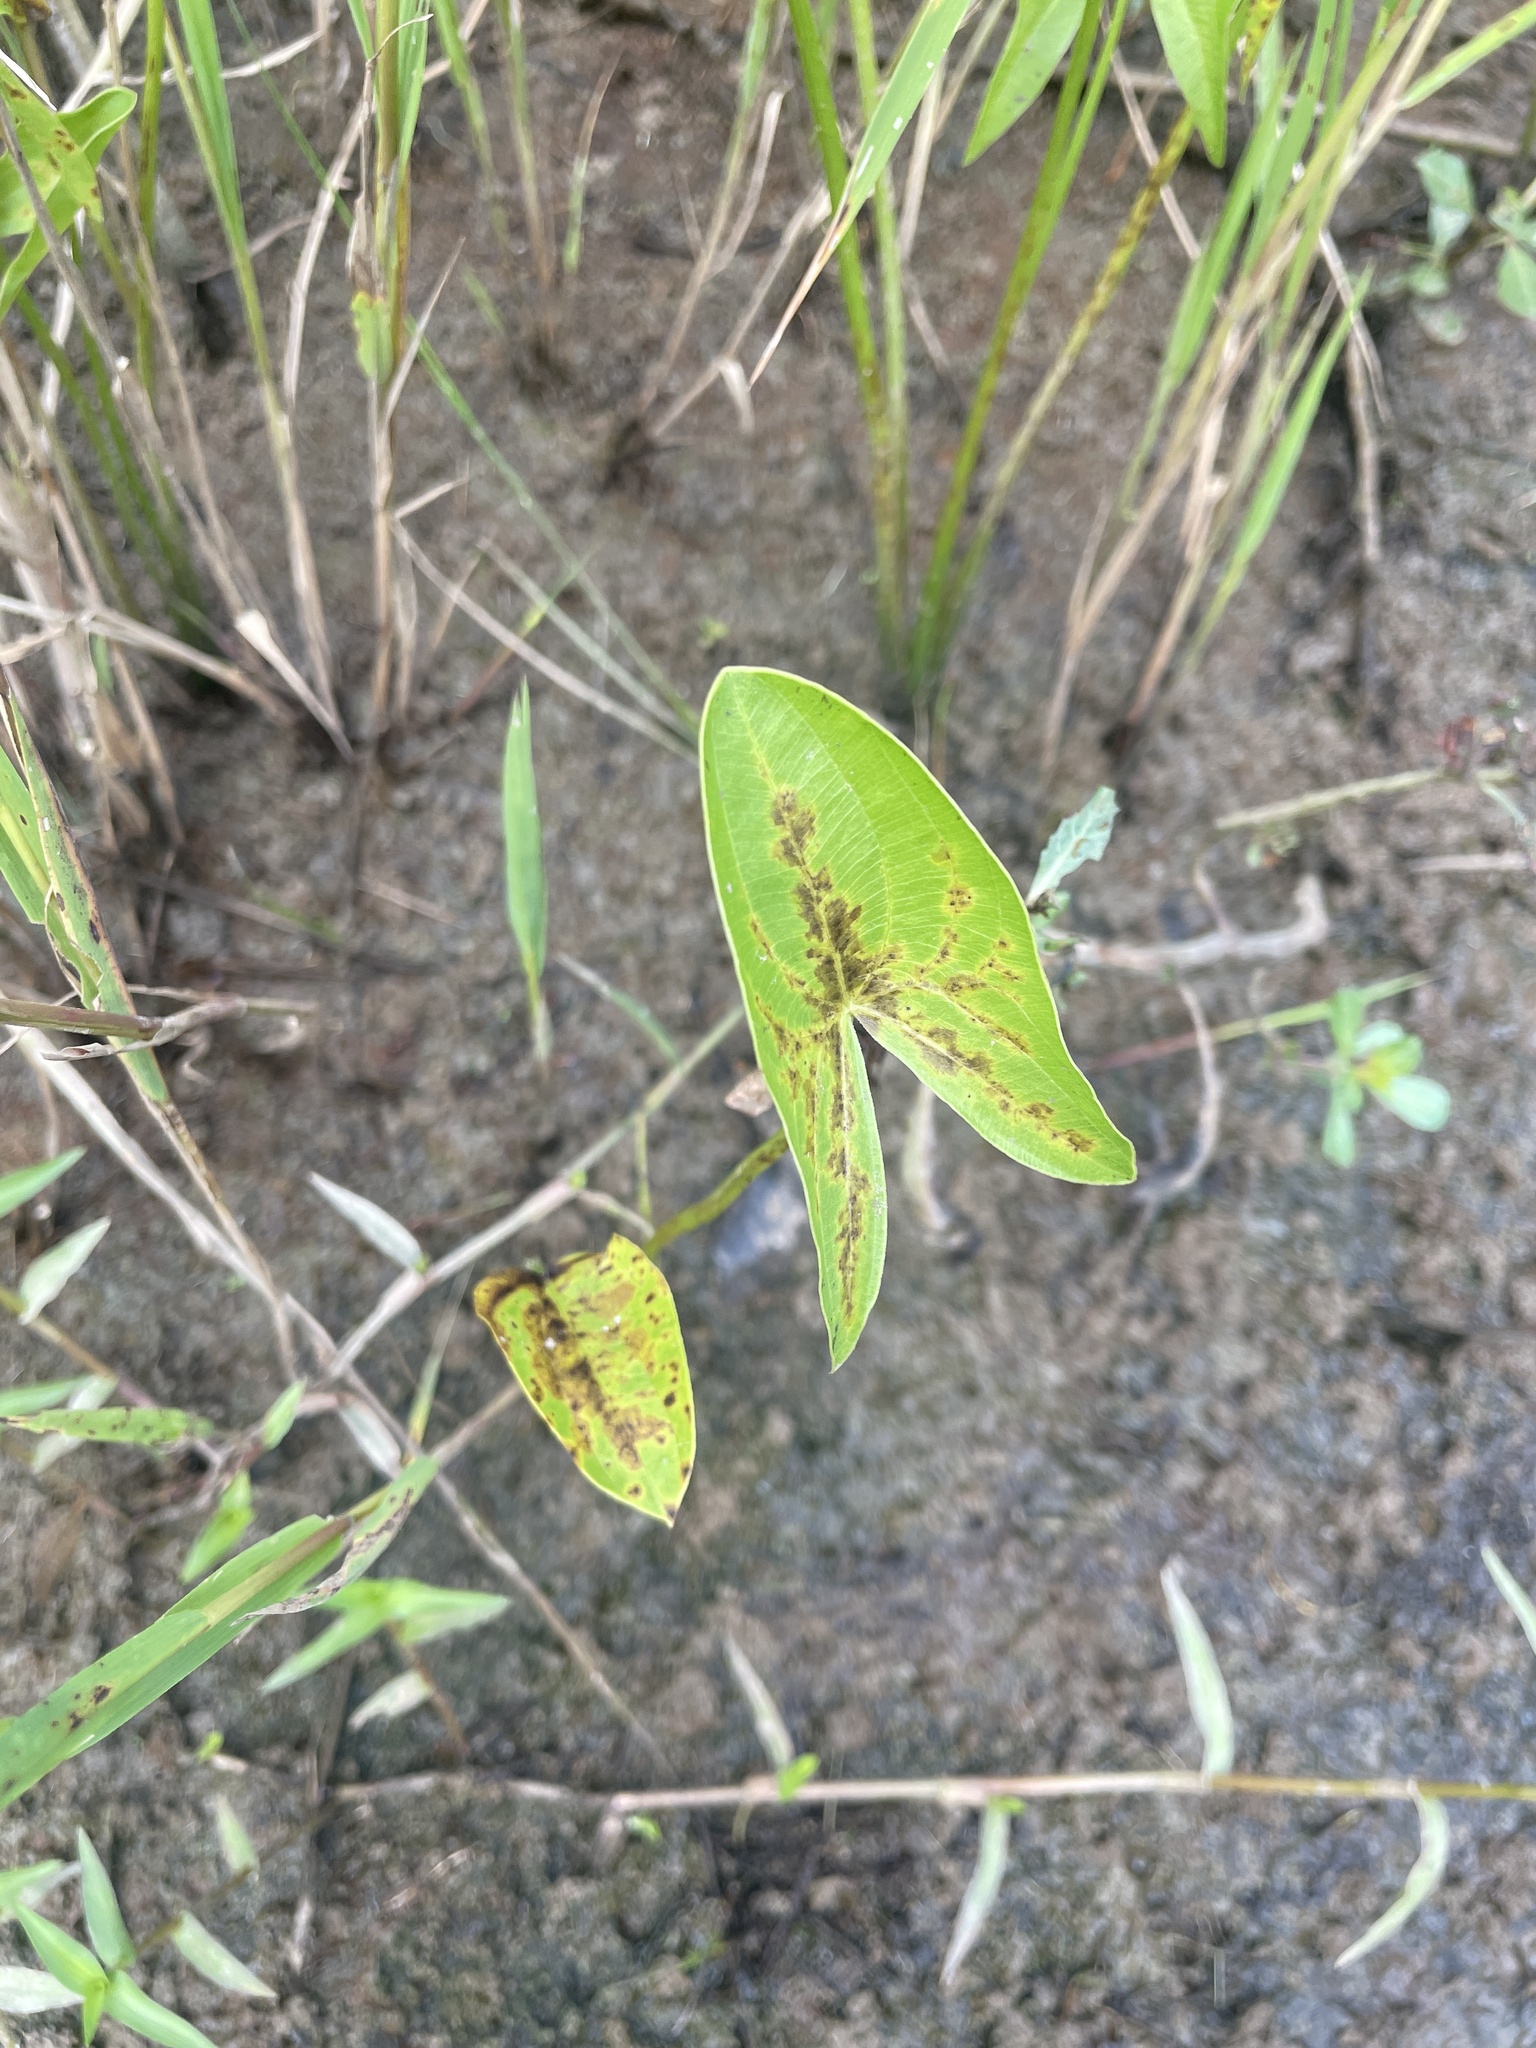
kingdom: Plantae
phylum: Tracheophyta
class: Liliopsida
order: Alismatales
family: Alismataceae
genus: Sagittaria
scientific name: Sagittaria australis
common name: Appalachian arrowhead
